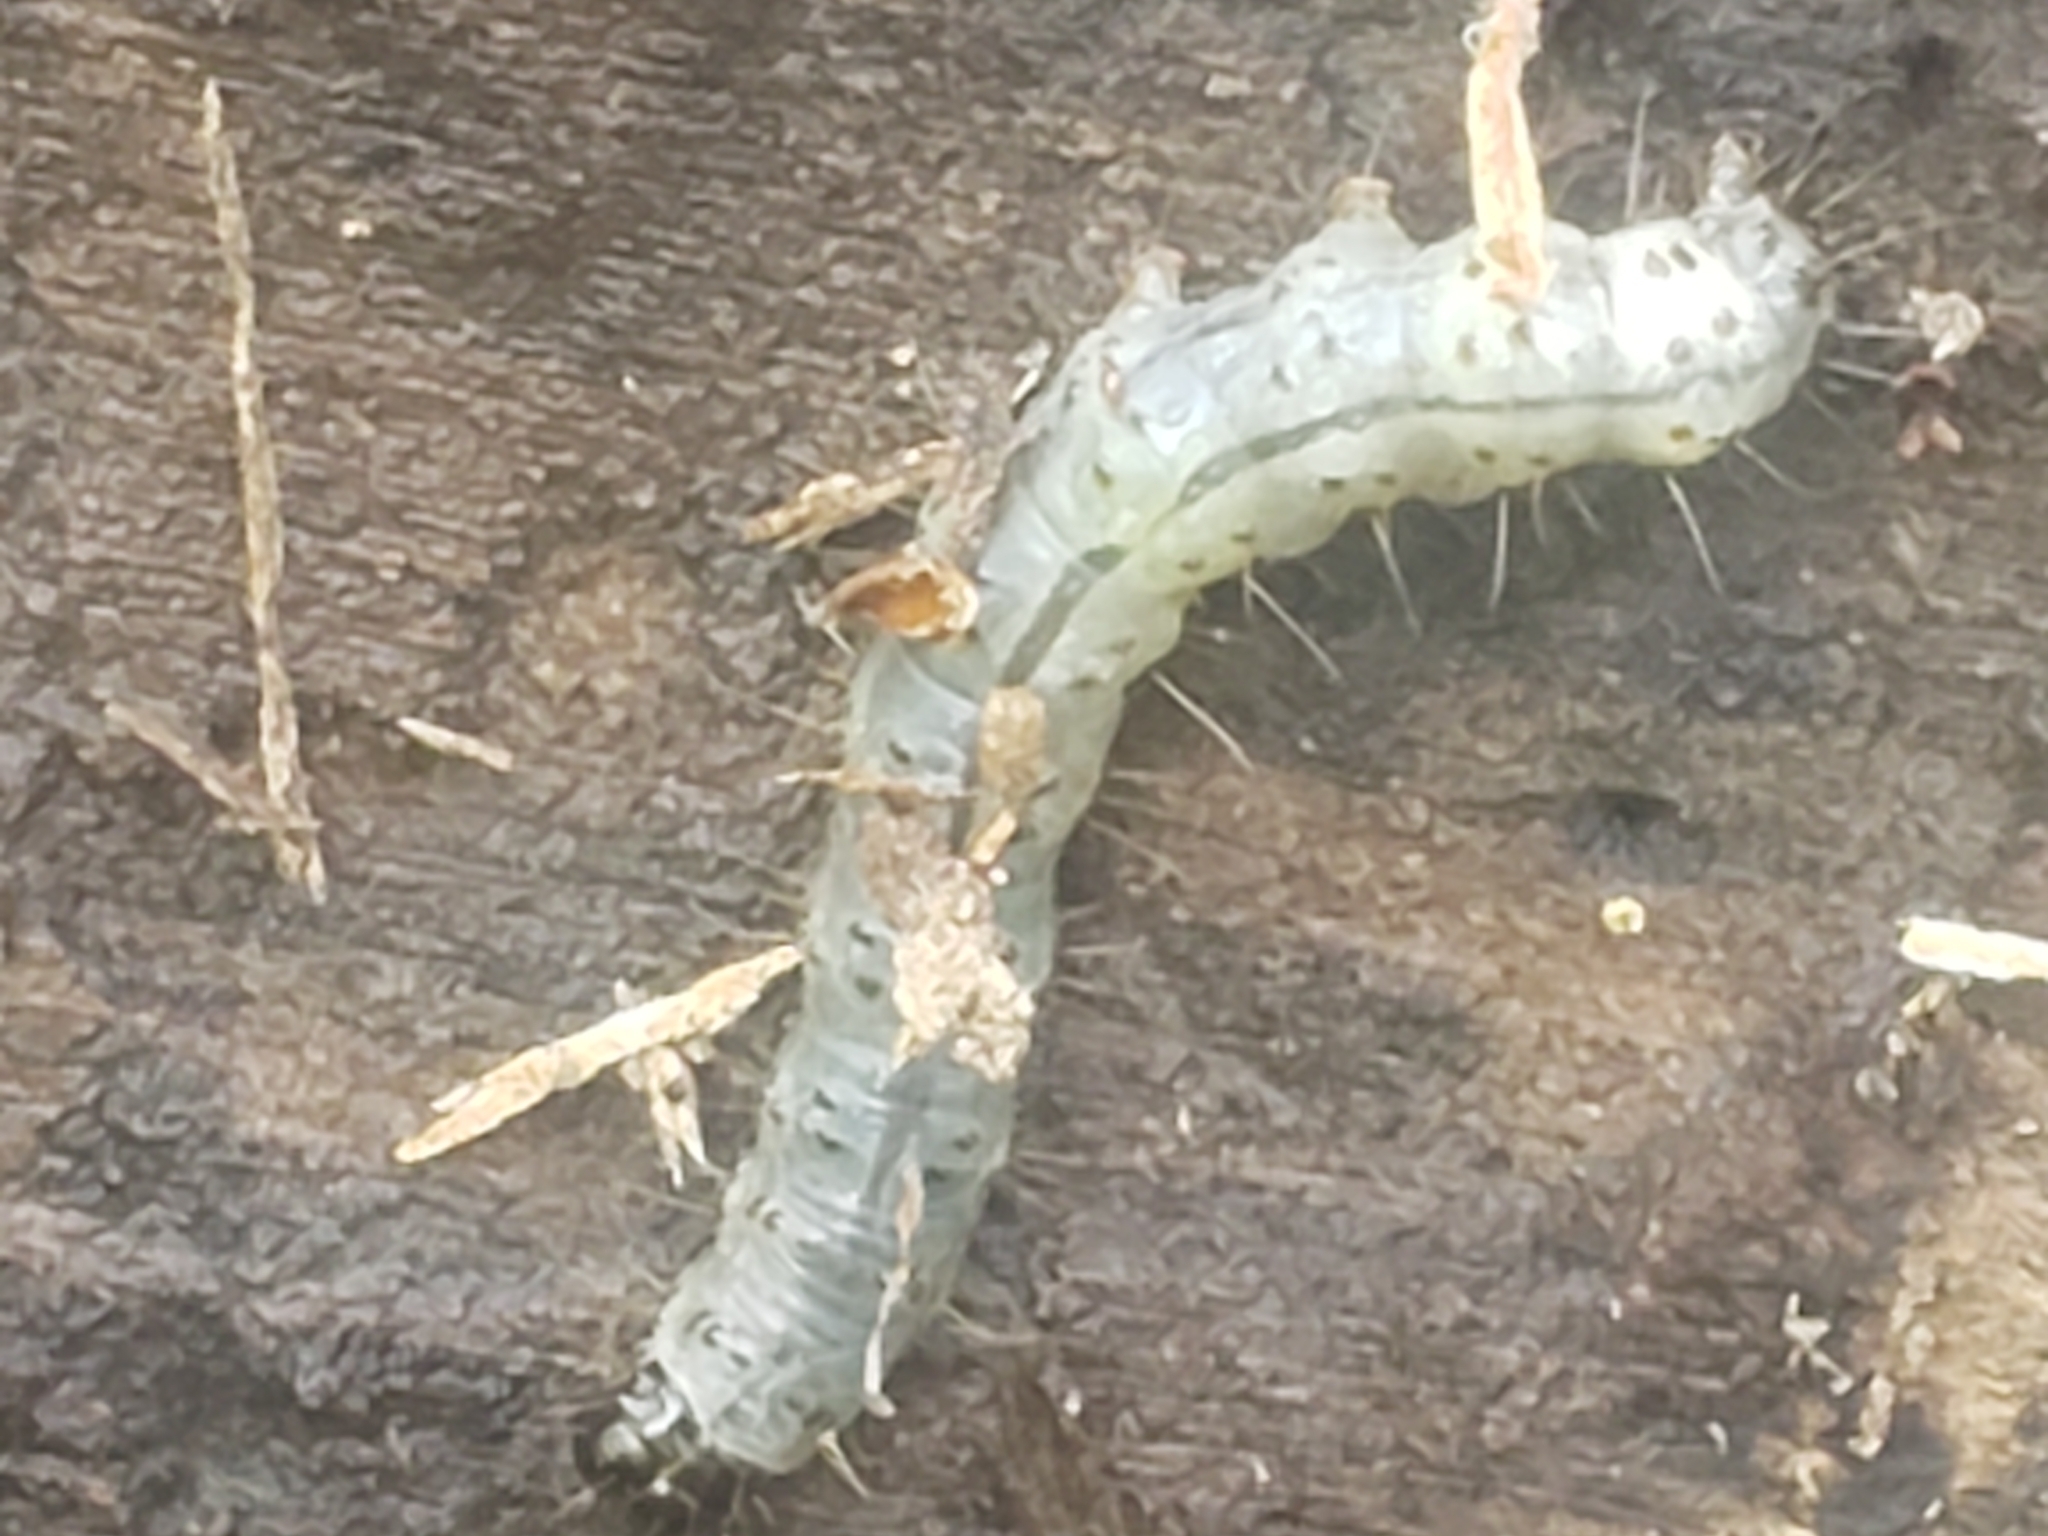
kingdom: Animalia
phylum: Arthropoda
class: Insecta
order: Lepidoptera
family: Erebidae
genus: Scolecocampa
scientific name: Scolecocampa liburna
